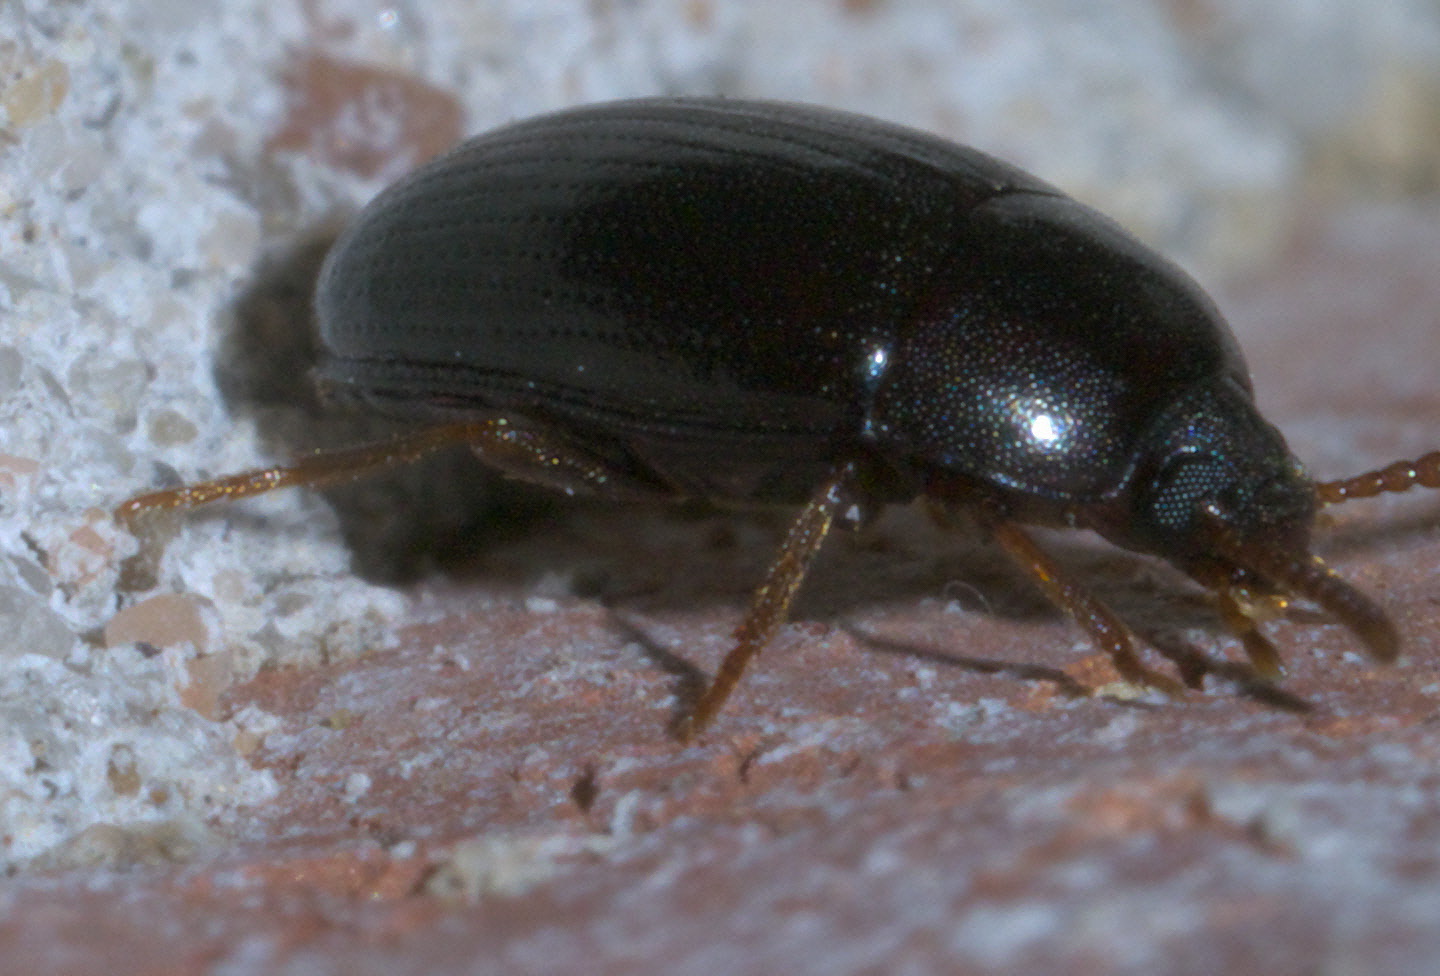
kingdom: Animalia
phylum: Arthropoda
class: Insecta
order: Coleoptera
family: Tenebrionidae
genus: Platydema
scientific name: Platydema micans
